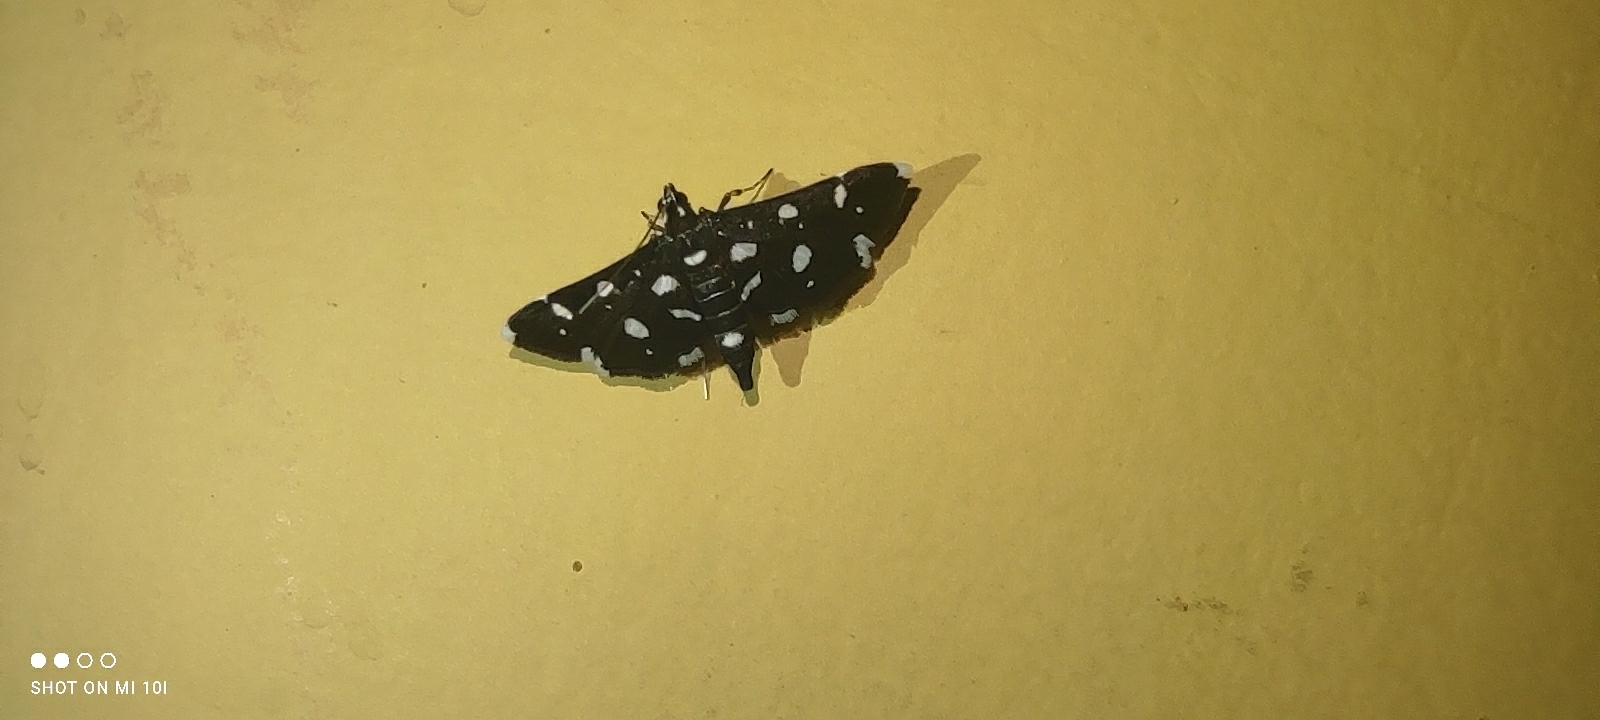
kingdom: Animalia
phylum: Arthropoda
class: Insecta
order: Lepidoptera
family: Crambidae
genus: Bocchoris
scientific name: Bocchoris inspersalis
